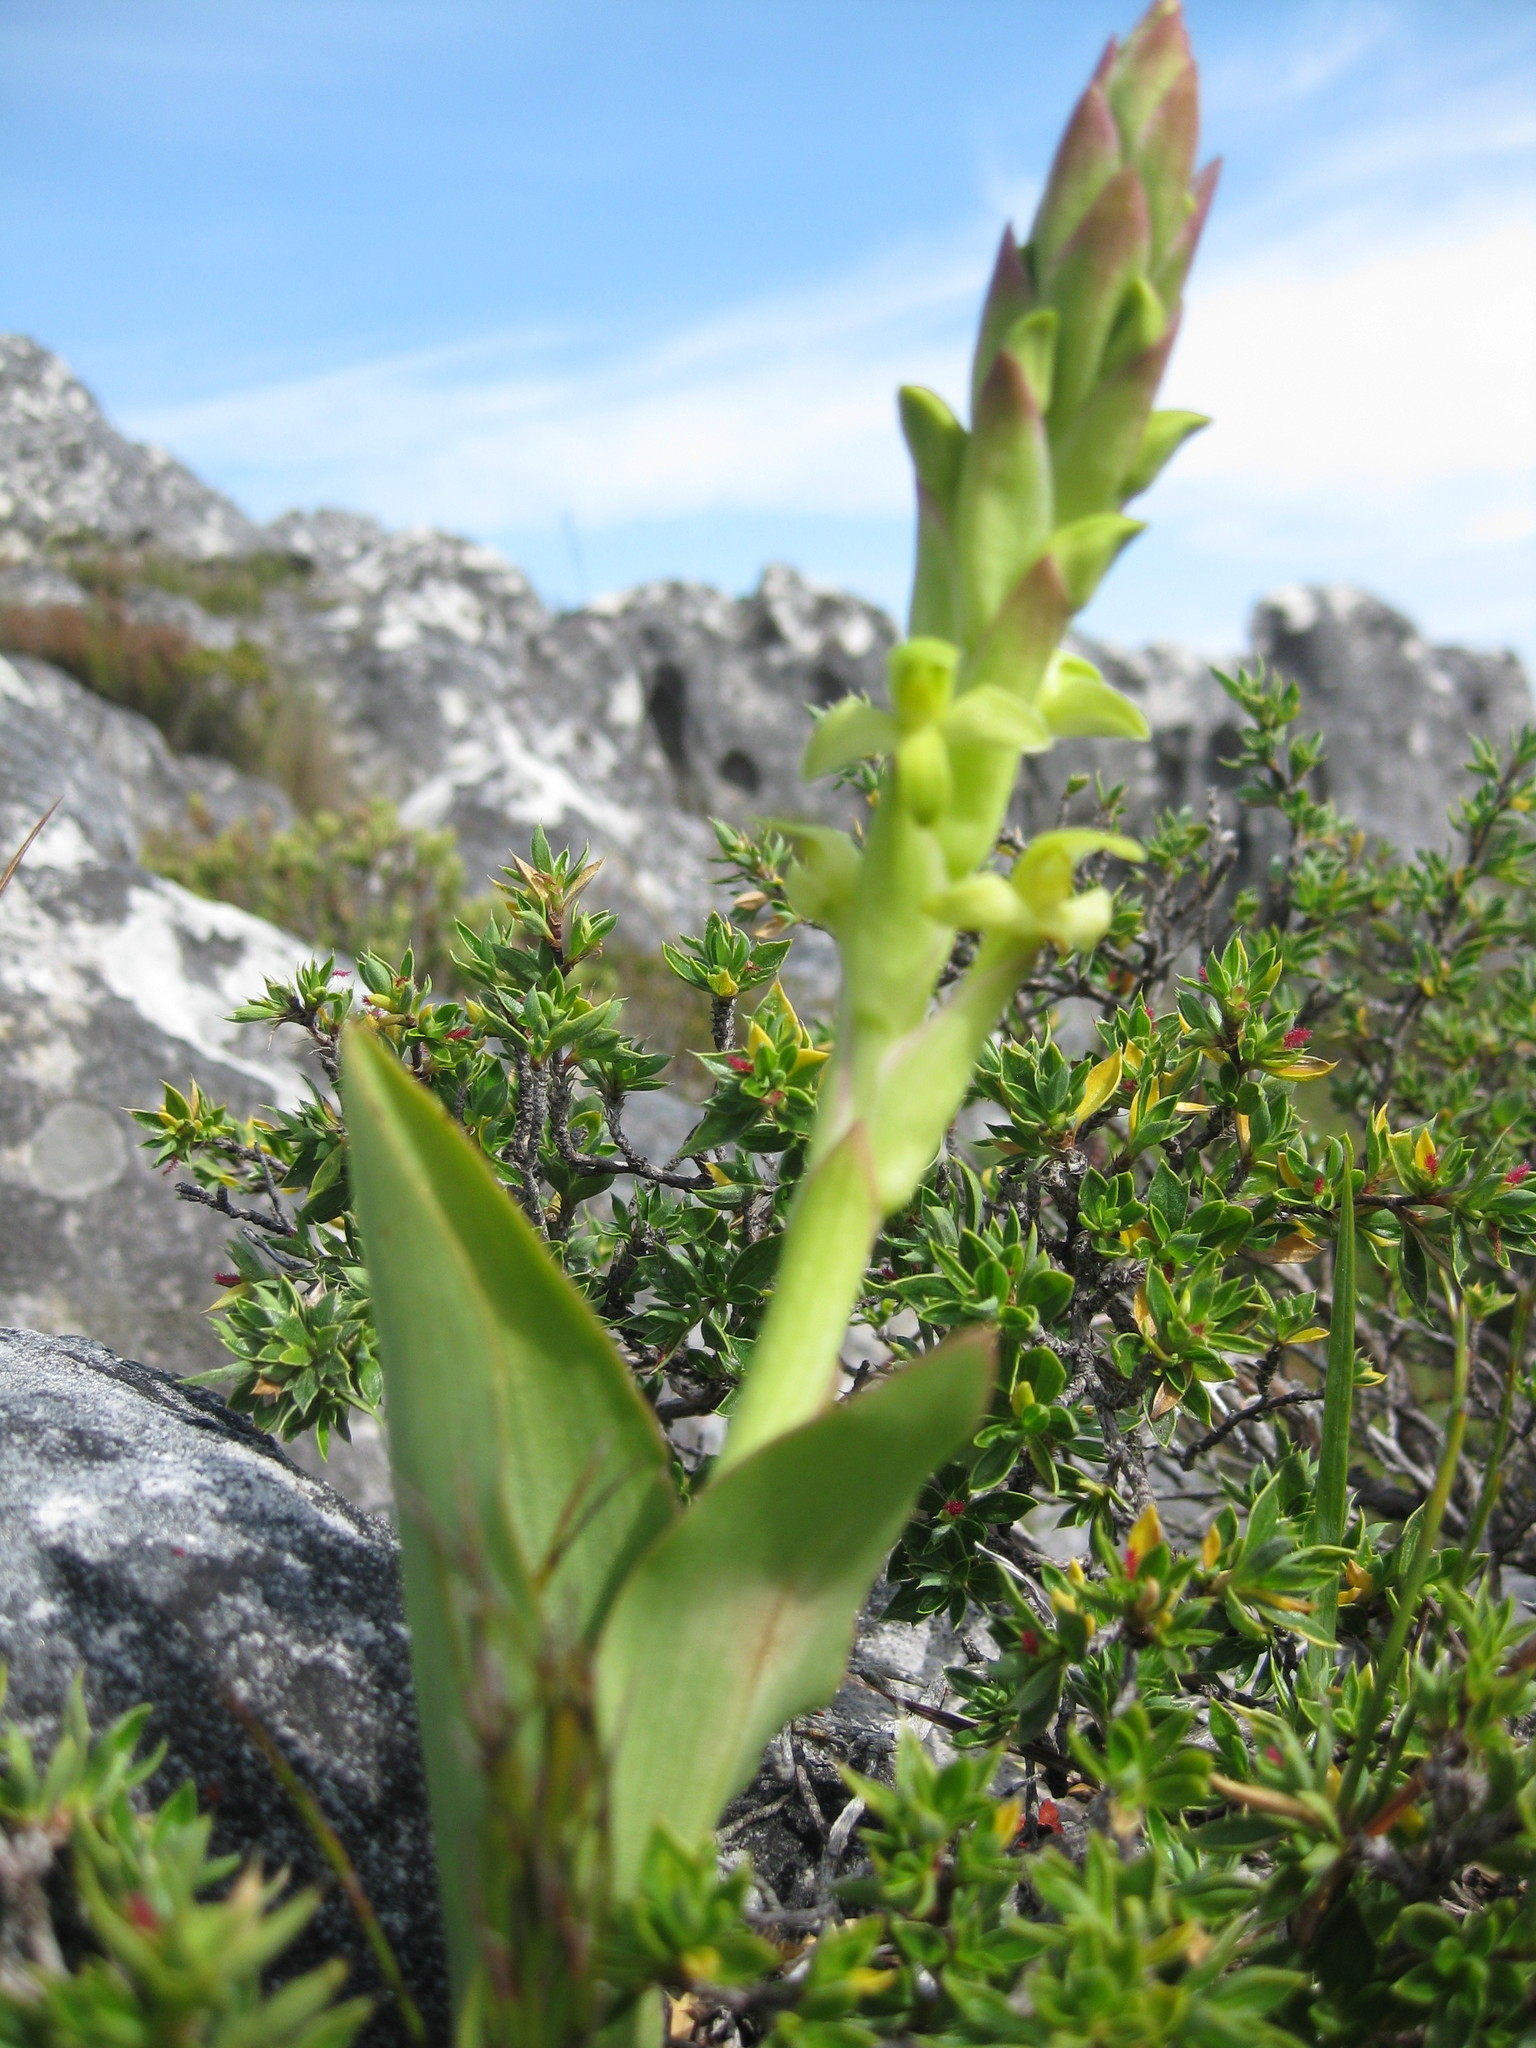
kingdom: Plantae
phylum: Tracheophyta
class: Liliopsida
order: Asparagales
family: Orchidaceae
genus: Disa
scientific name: Disa comosa
